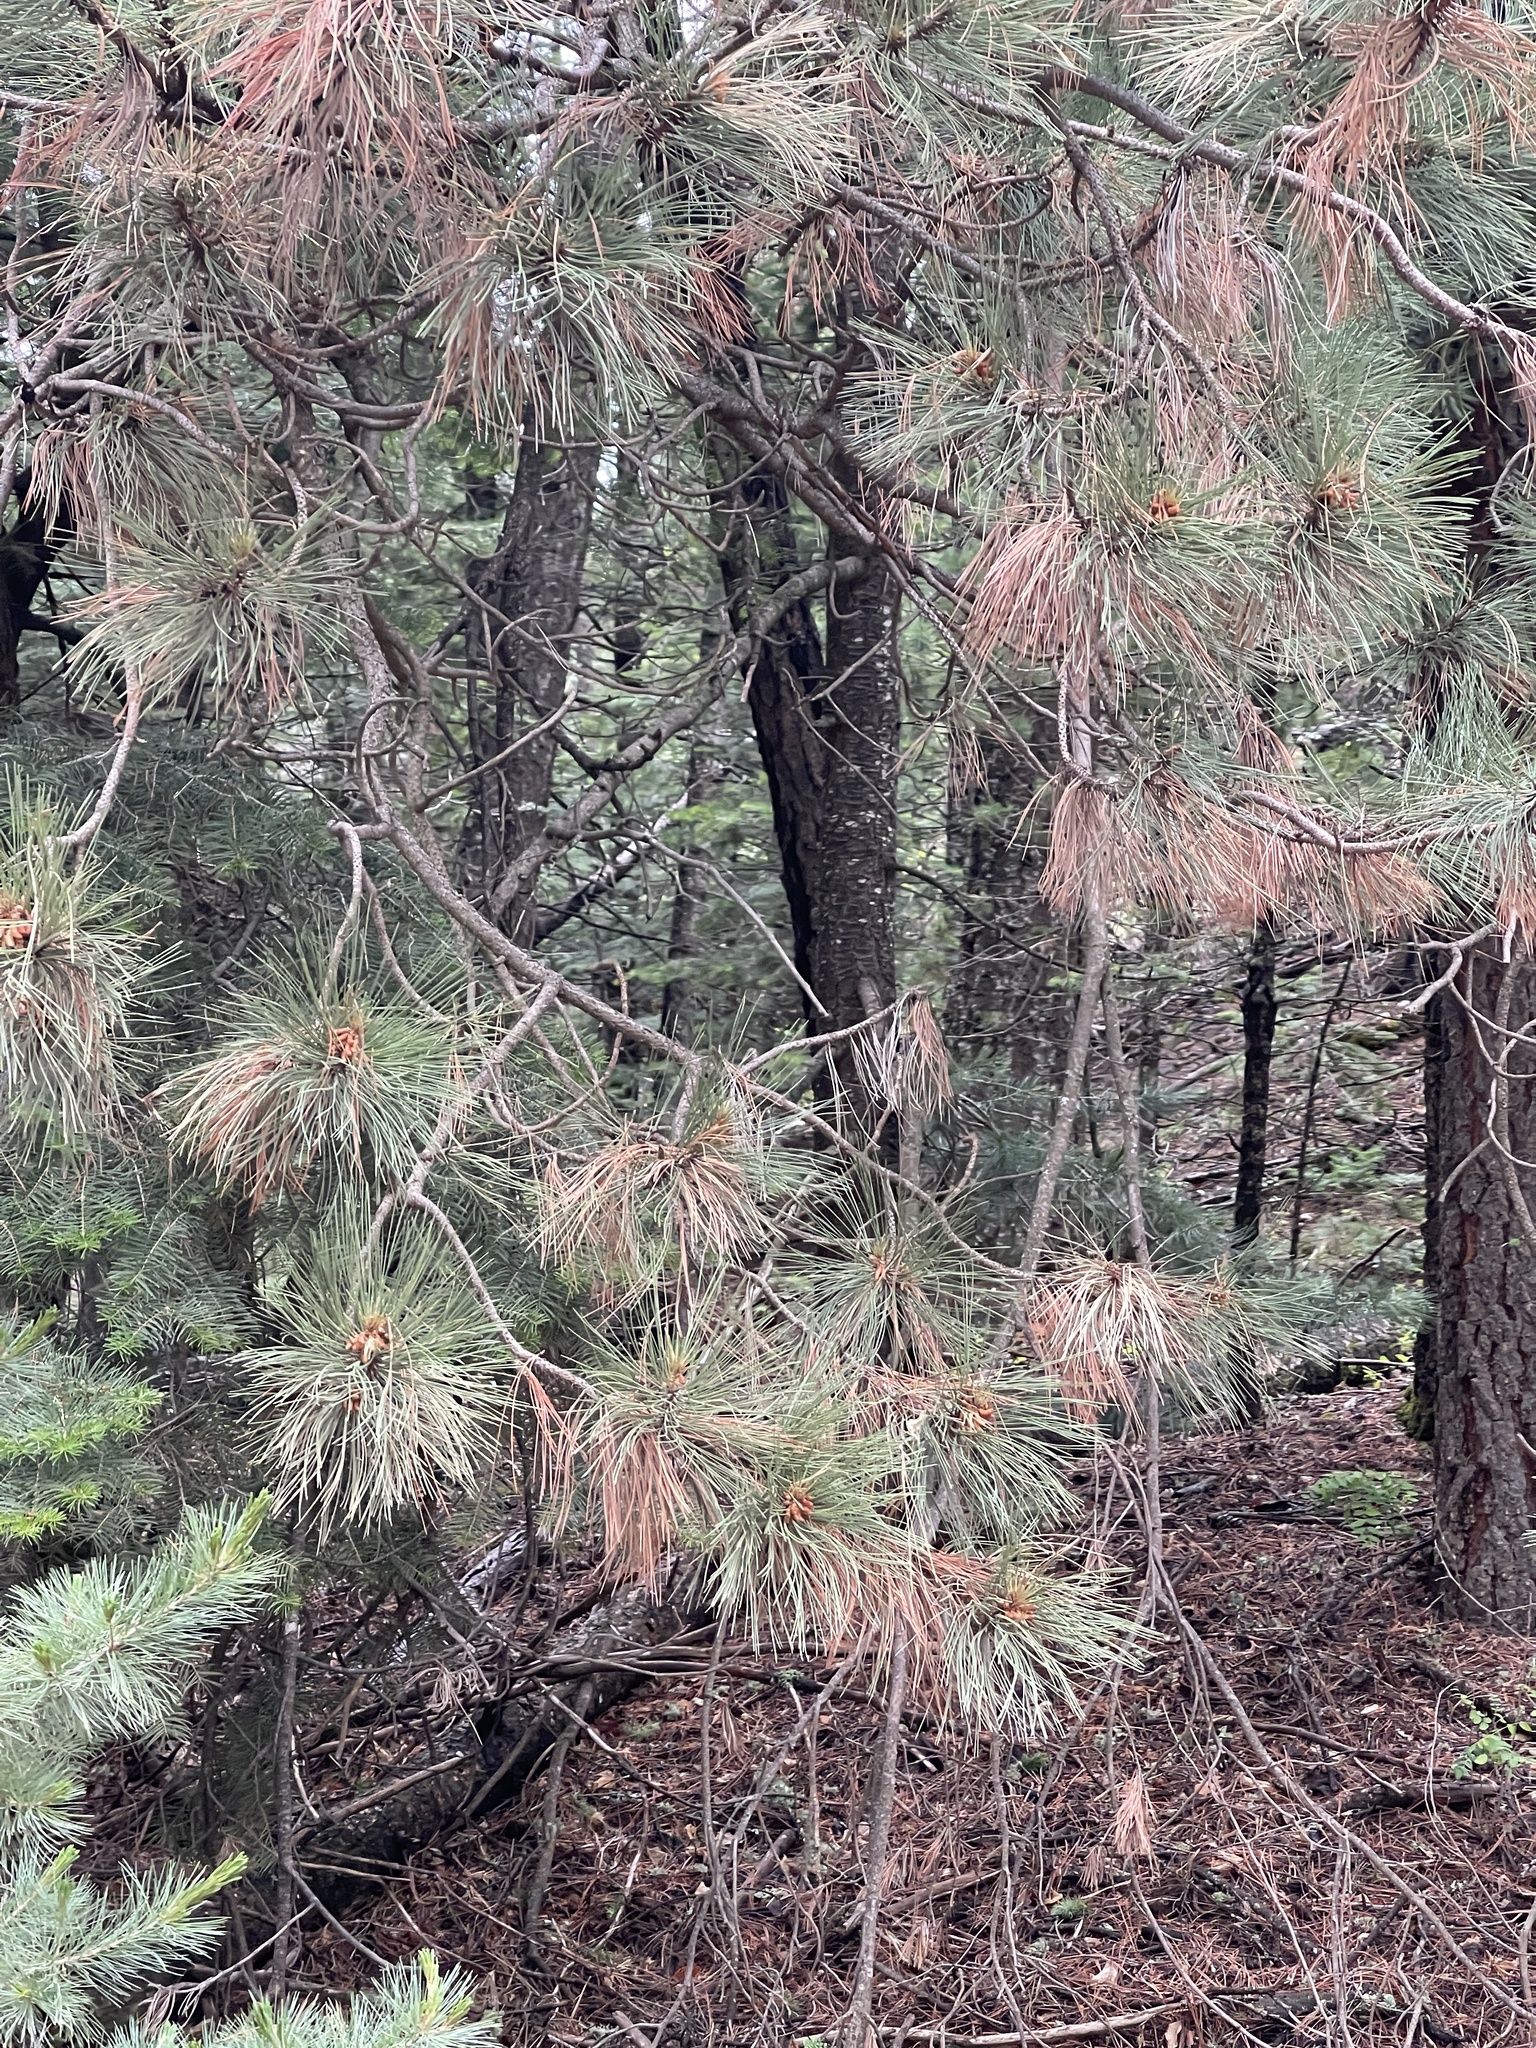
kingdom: Plantae
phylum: Tracheophyta
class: Pinopsida
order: Pinales
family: Pinaceae
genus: Pinus
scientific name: Pinus ponderosa
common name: Western yellow-pine
